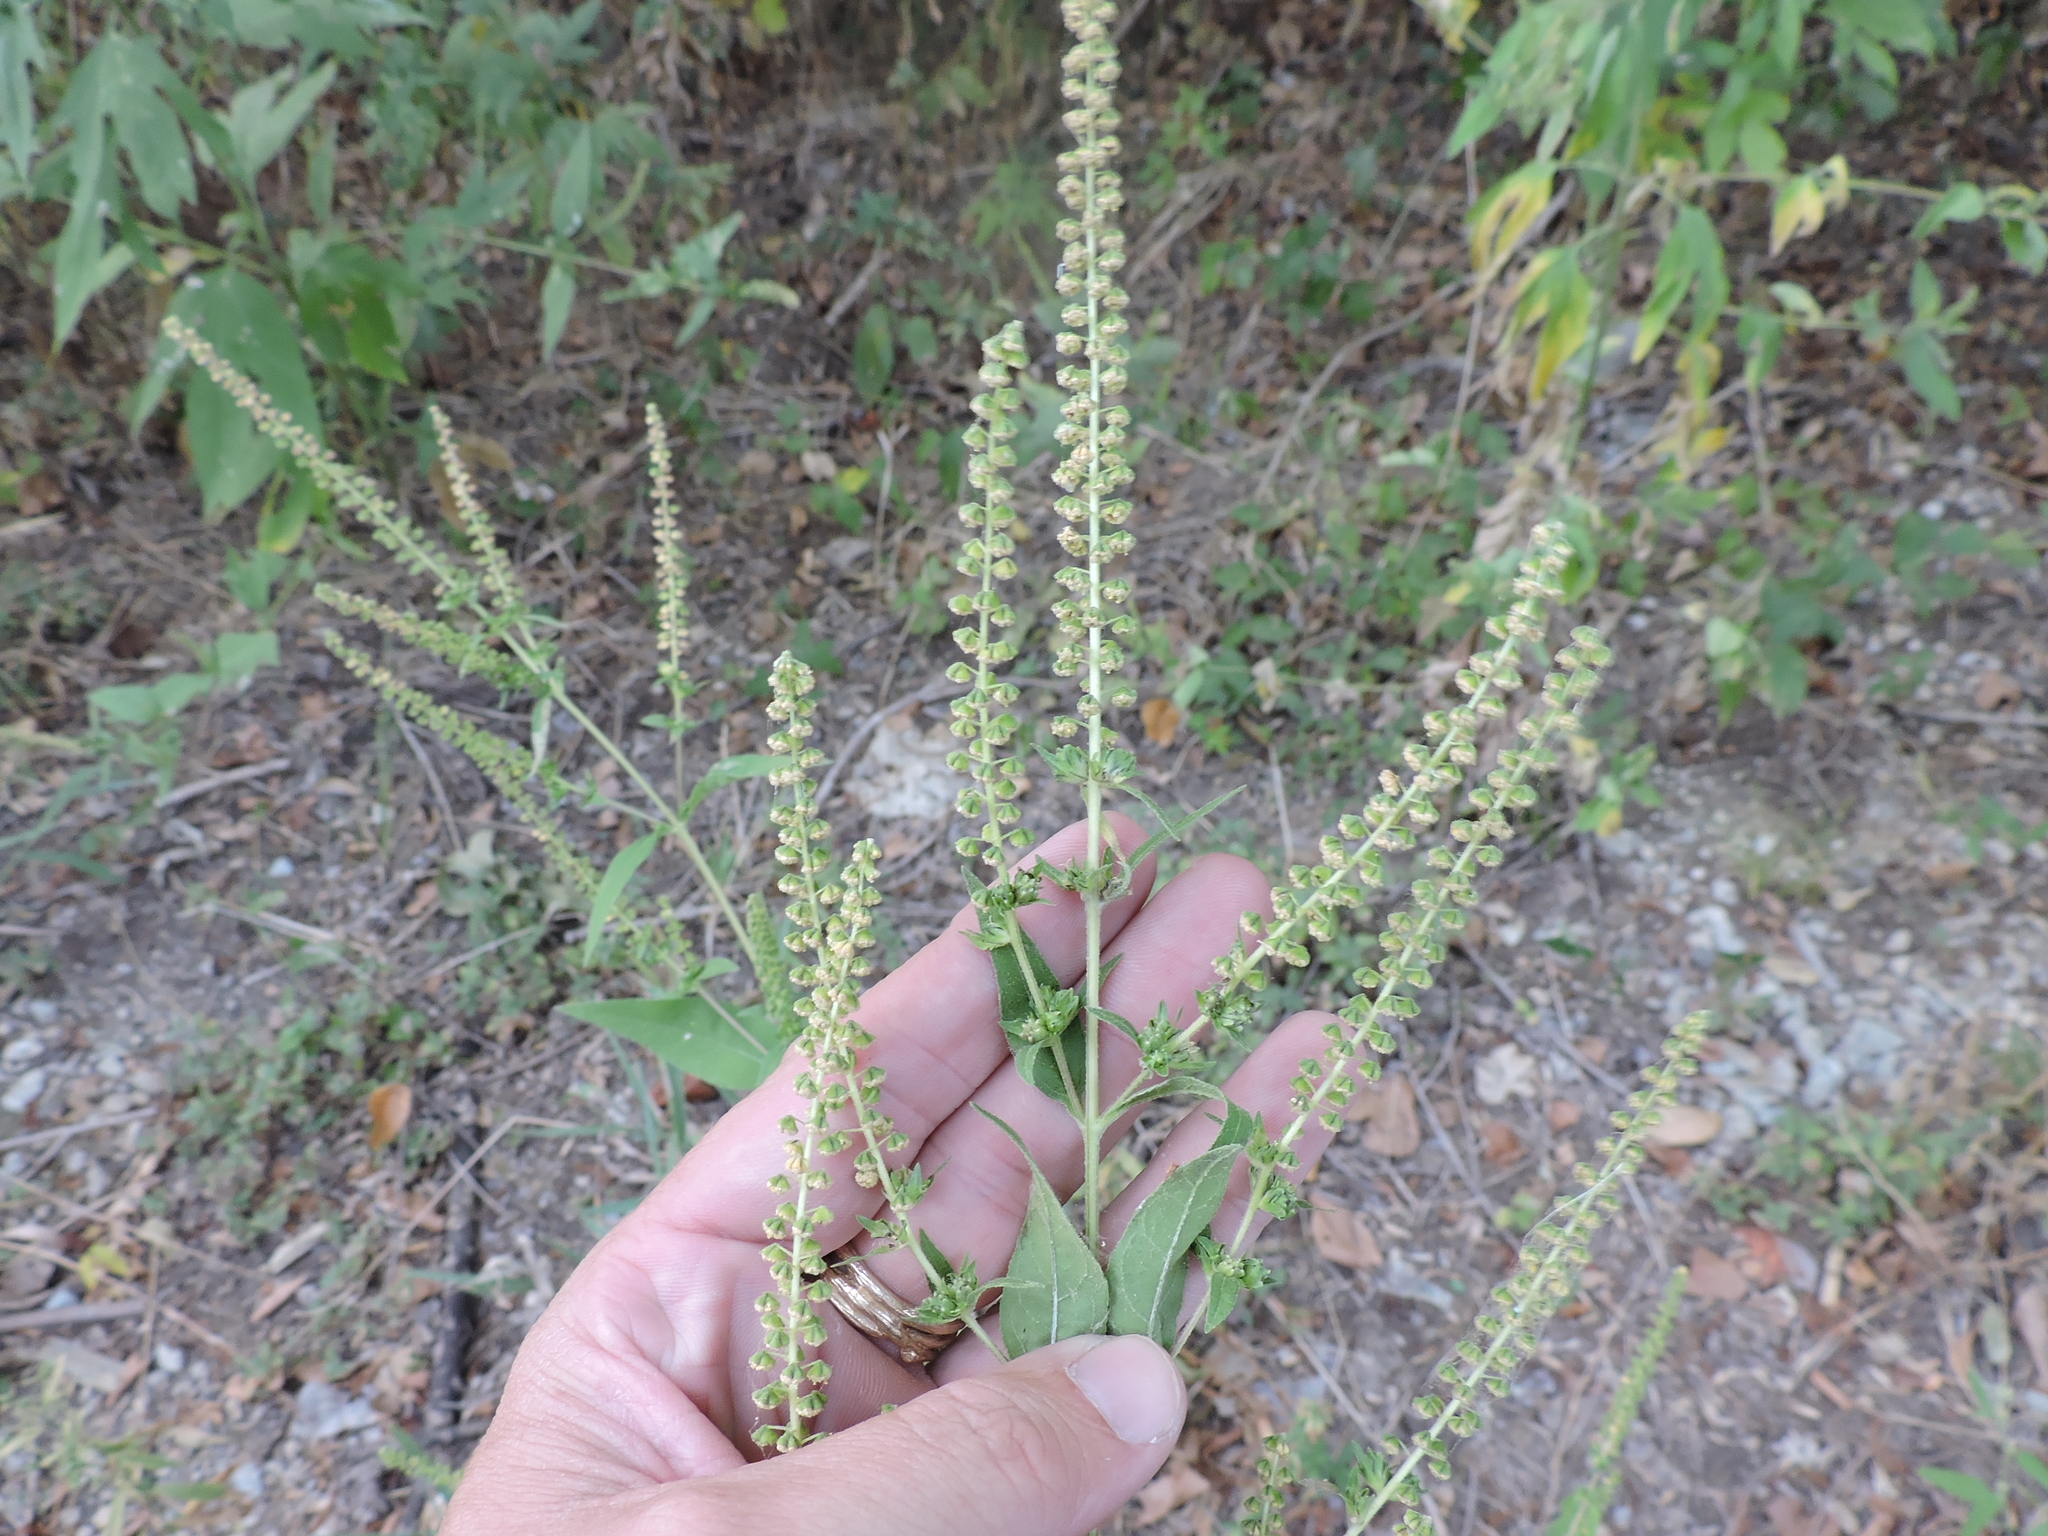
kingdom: Plantae
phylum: Tracheophyta
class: Magnoliopsida
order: Asterales
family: Asteraceae
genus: Ambrosia
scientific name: Ambrosia trifida
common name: Giant ragweed
